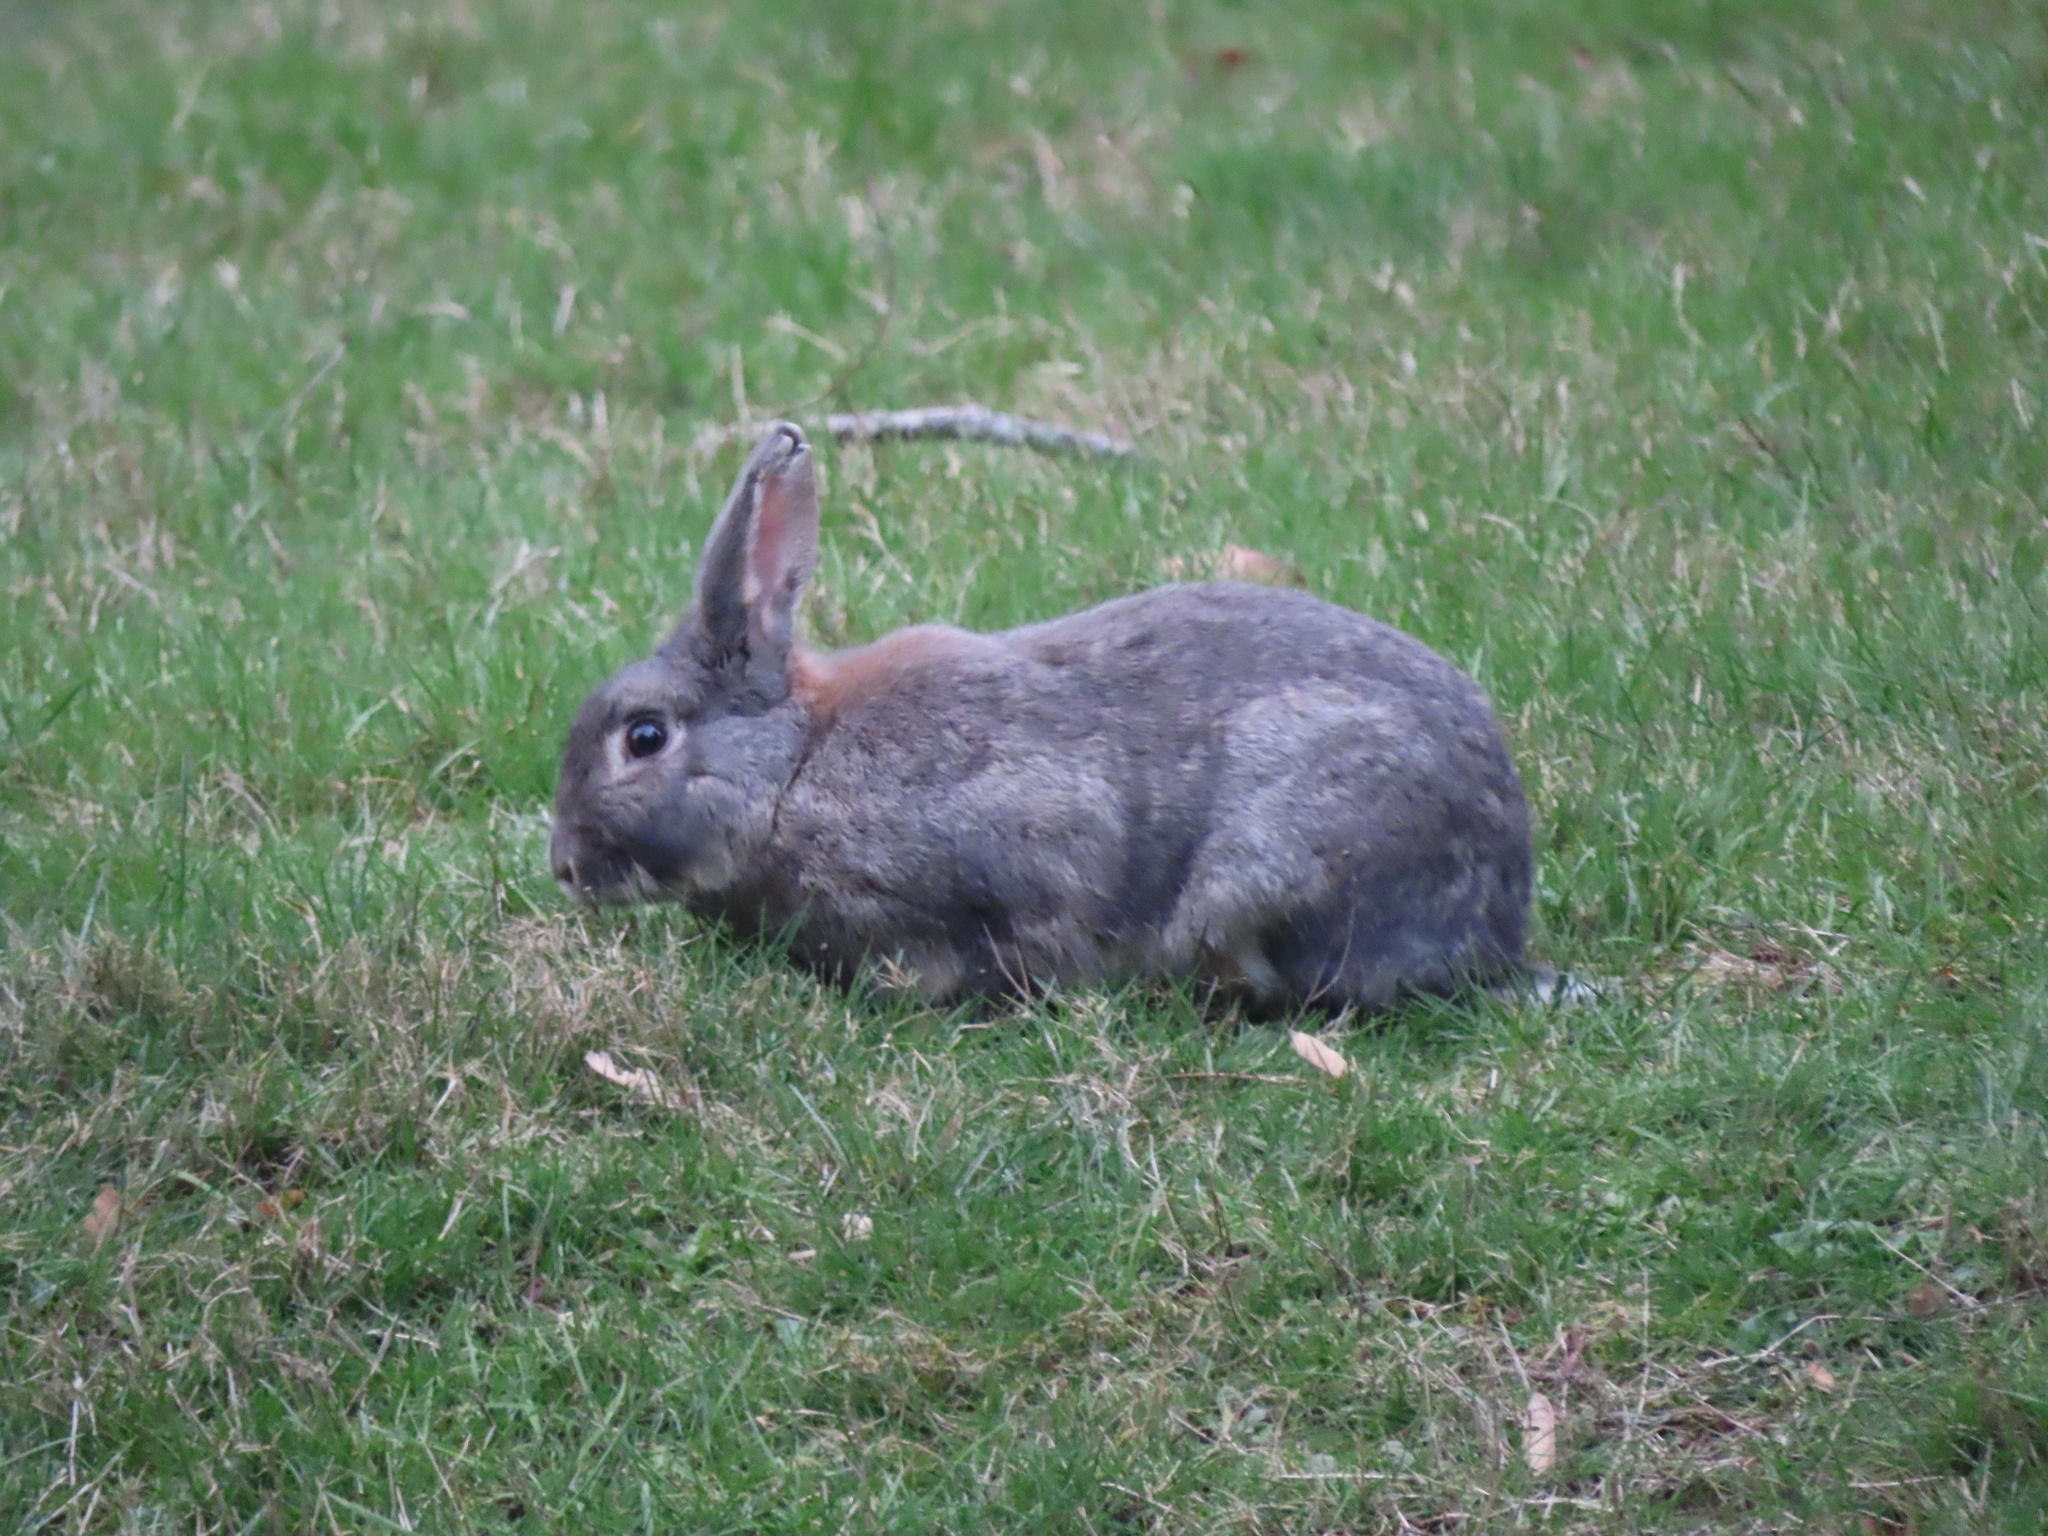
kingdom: Animalia
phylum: Chordata
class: Mammalia
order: Lagomorpha
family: Leporidae
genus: Oryctolagus
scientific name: Oryctolagus cuniculus
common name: European rabbit
